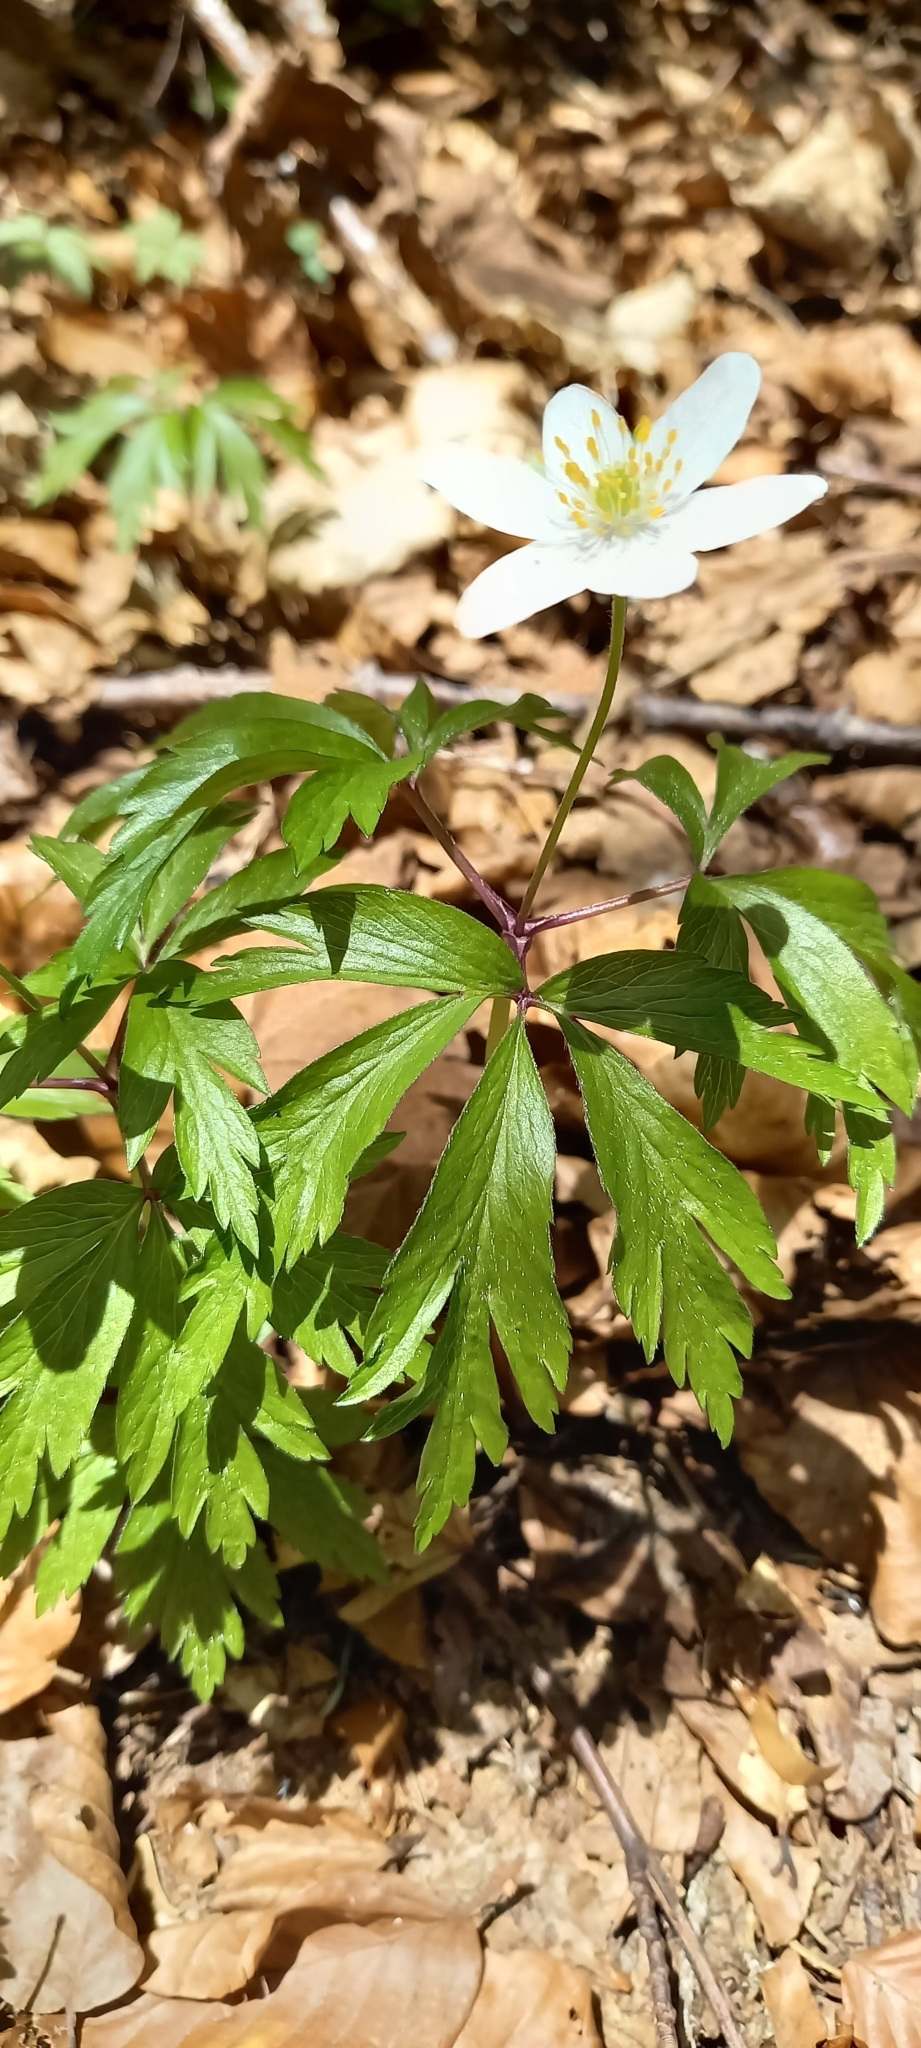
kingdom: Plantae
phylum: Tracheophyta
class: Magnoliopsida
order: Ranunculales
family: Ranunculaceae
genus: Anemone
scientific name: Anemone nemorosa
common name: Wood anemone
